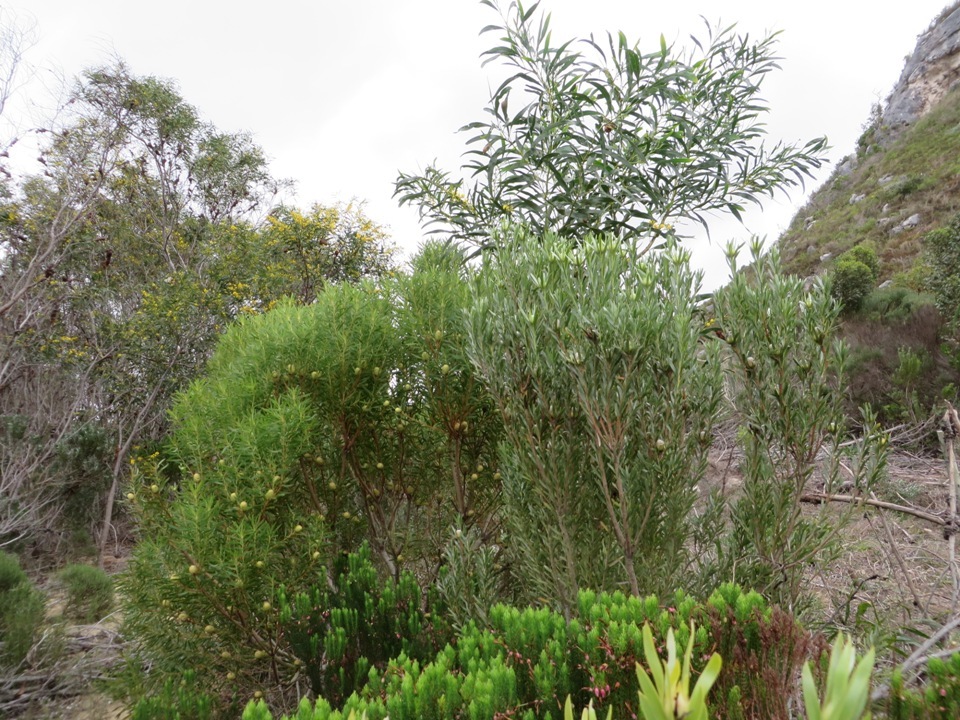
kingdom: Plantae
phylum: Tracheophyta
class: Magnoliopsida
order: Proteales
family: Proteaceae
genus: Leucadendron
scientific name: Leucadendron meridianum
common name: Limestone conebush
